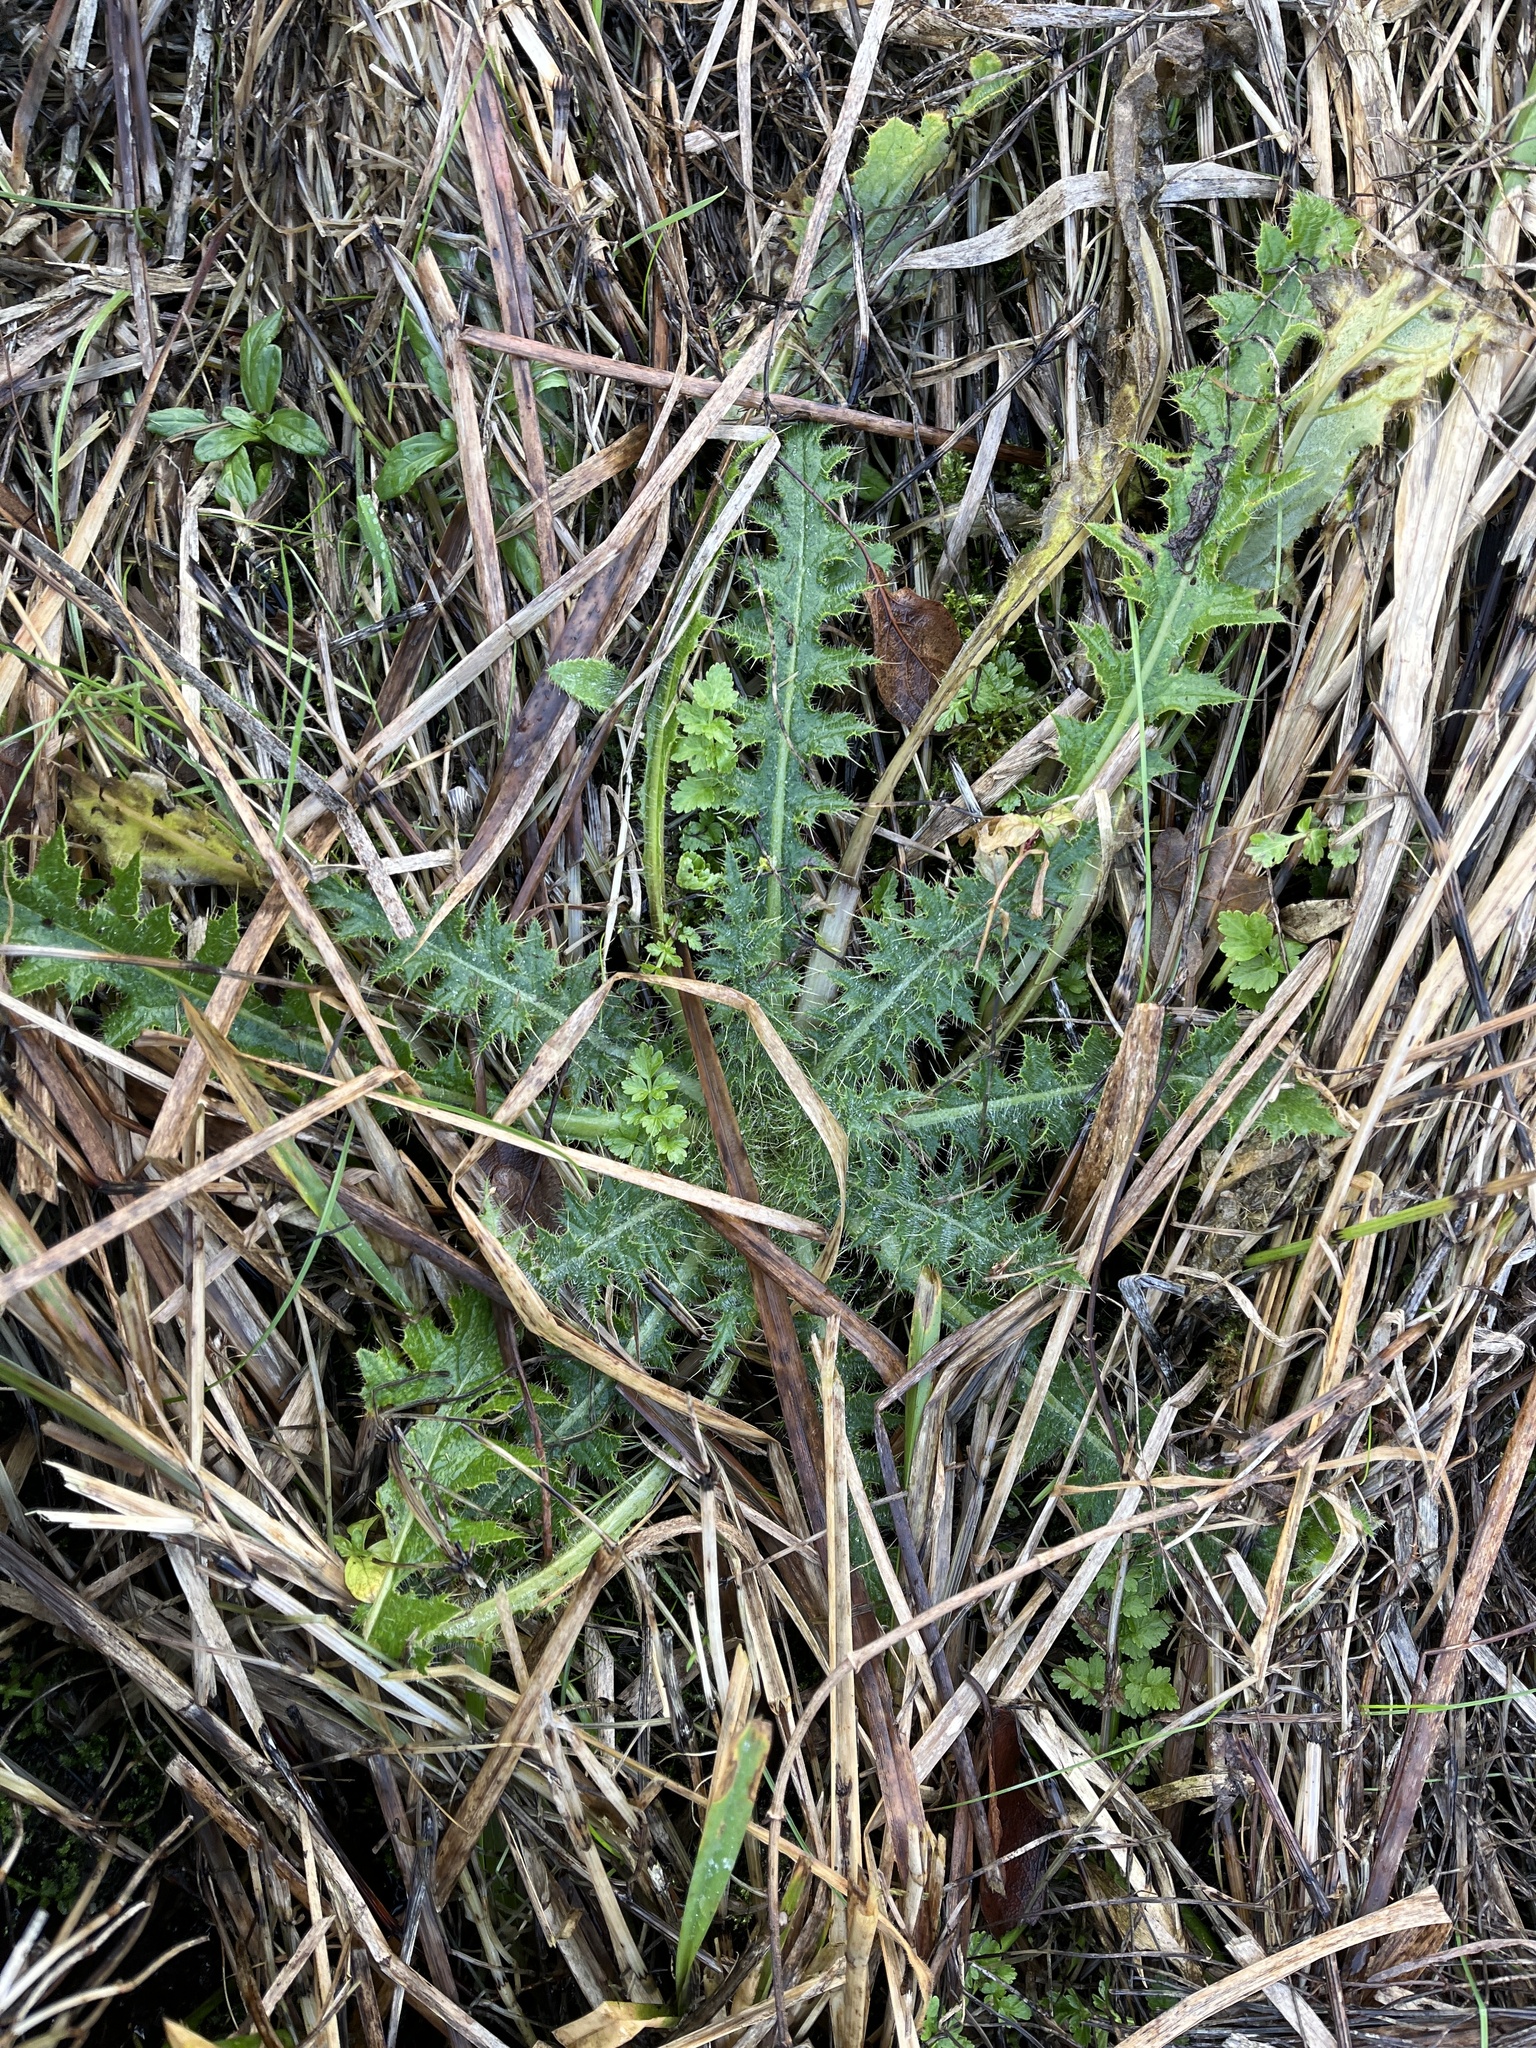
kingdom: Plantae
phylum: Tracheophyta
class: Magnoliopsida
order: Asterales
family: Asteraceae
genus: Cirsium
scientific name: Cirsium palustre
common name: Marsh thistle
